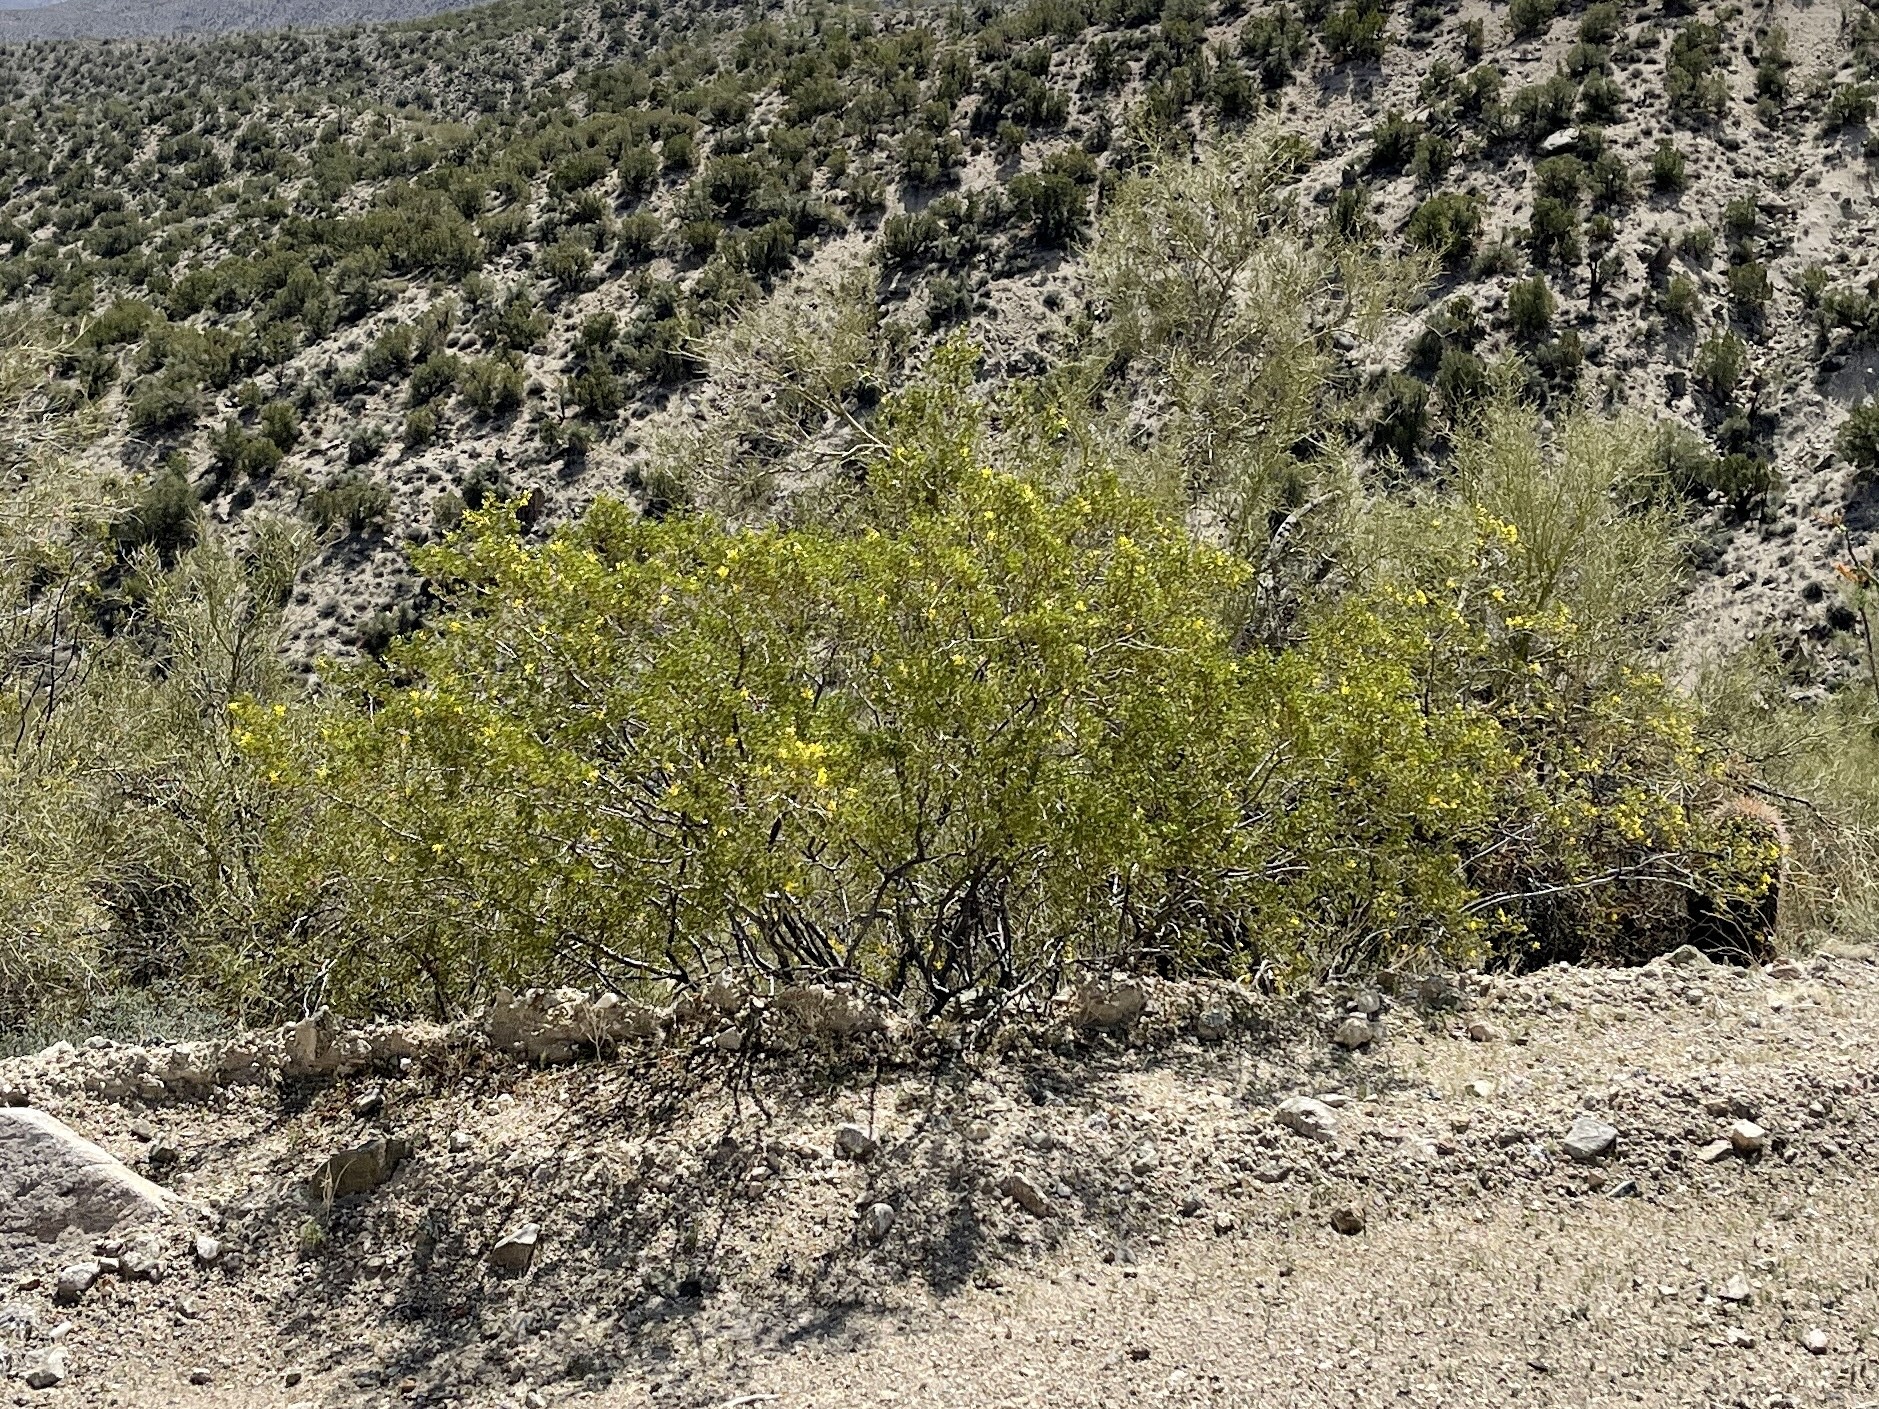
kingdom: Plantae
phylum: Tracheophyta
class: Magnoliopsida
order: Zygophyllales
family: Zygophyllaceae
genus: Larrea
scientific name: Larrea tridentata
